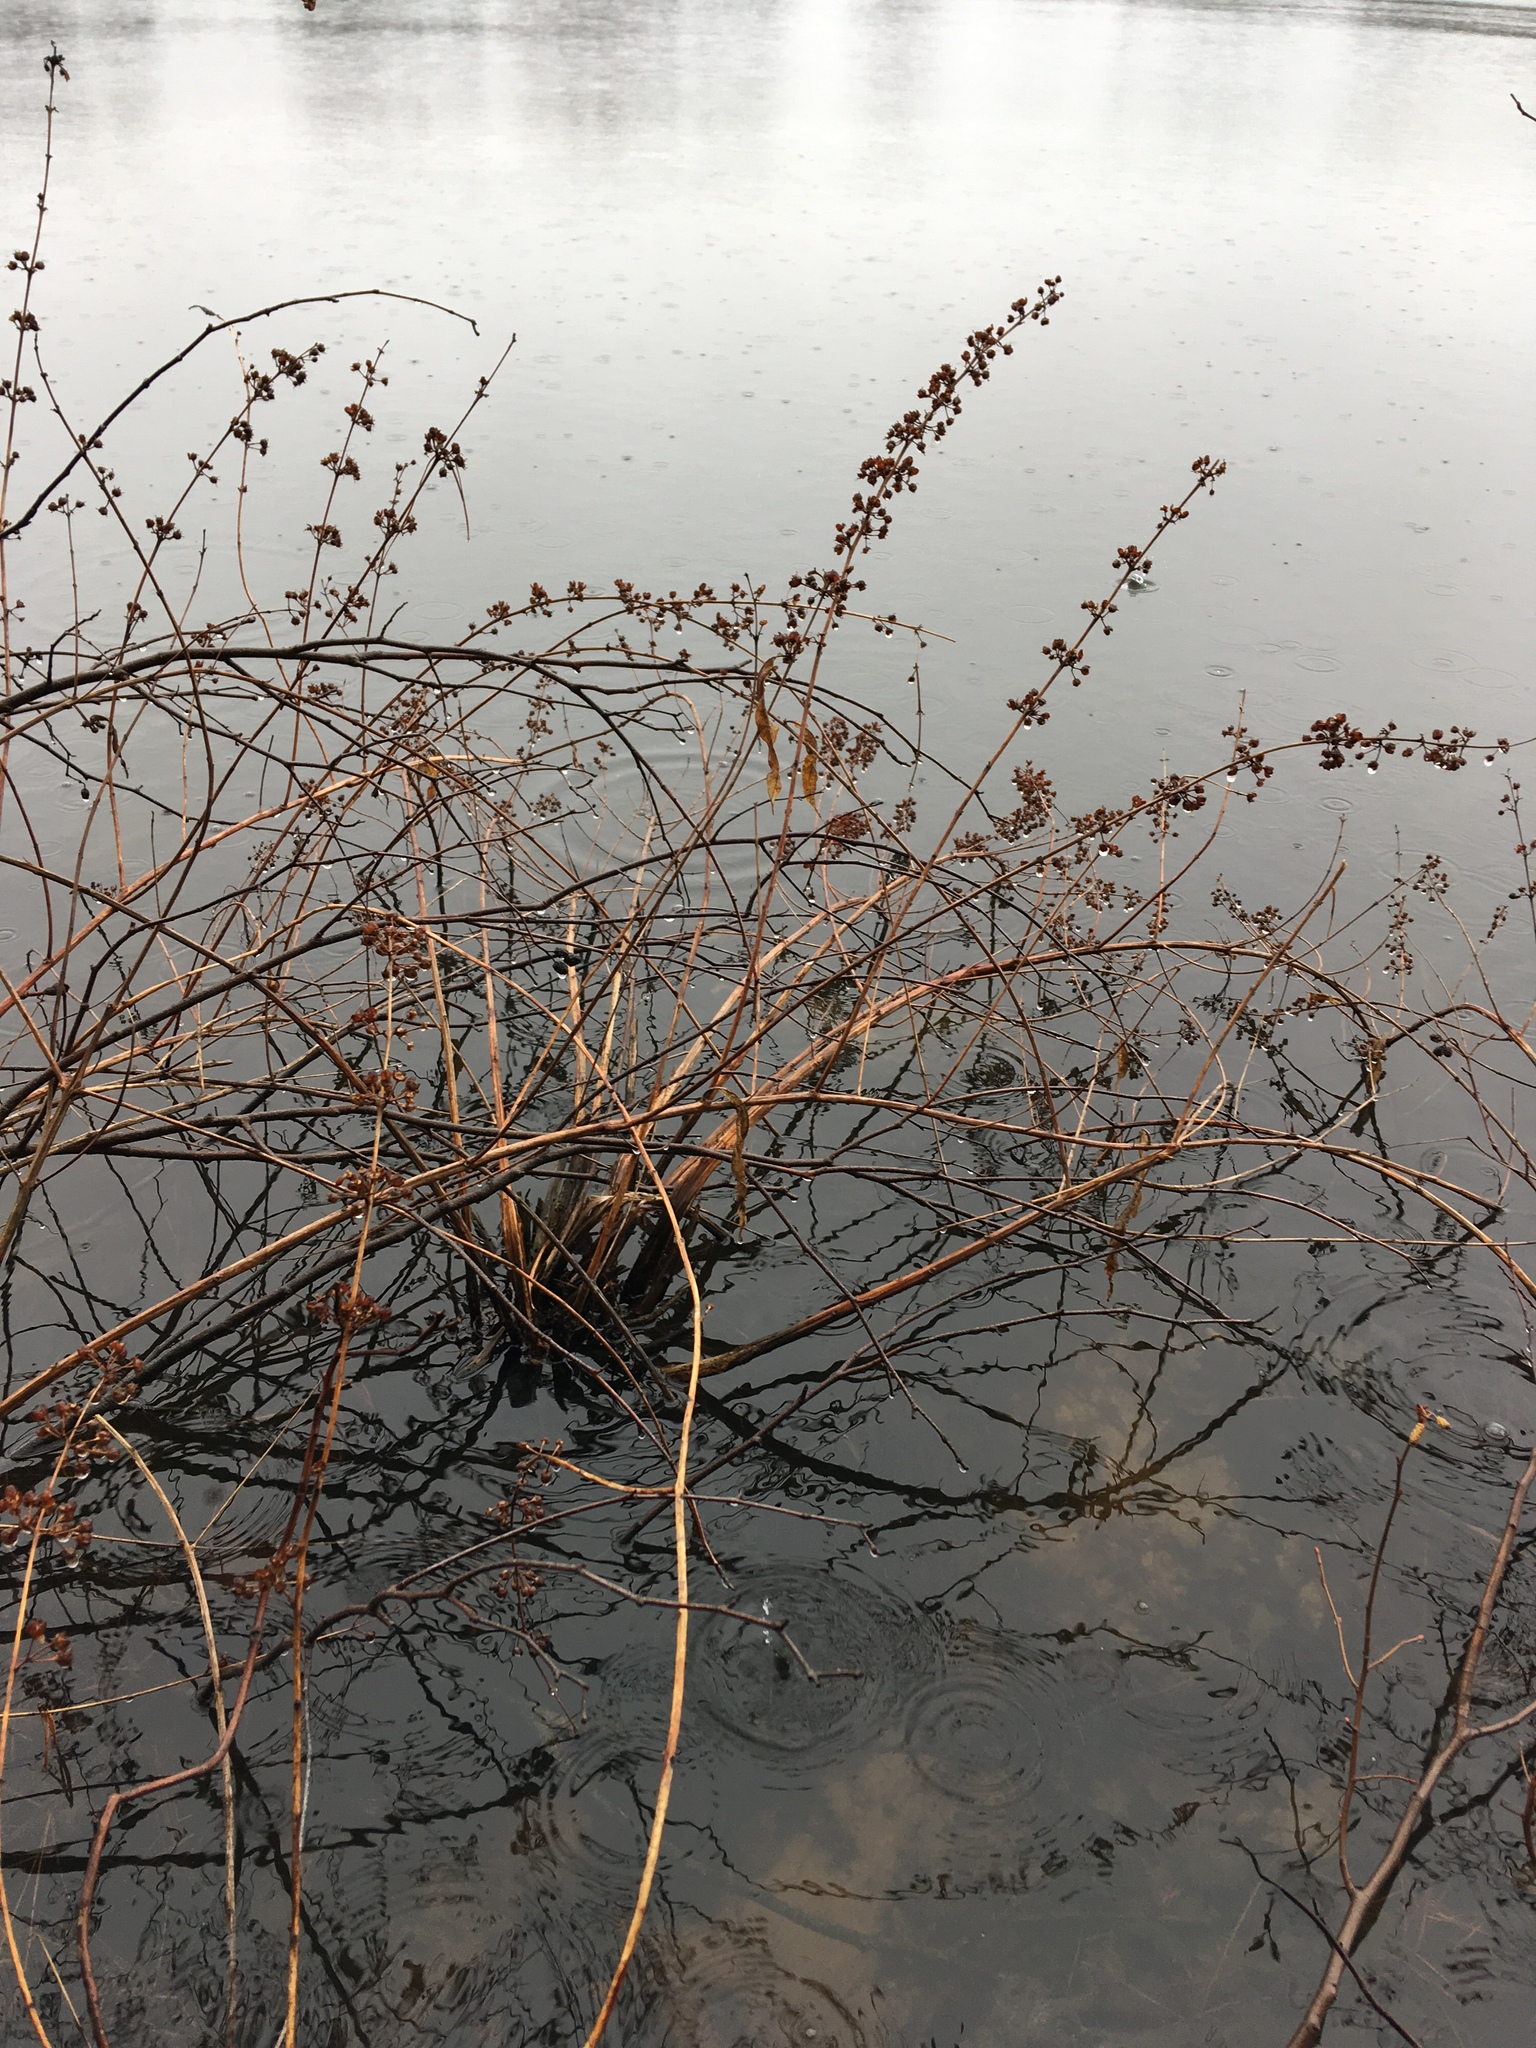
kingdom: Plantae
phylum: Tracheophyta
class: Magnoliopsida
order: Myrtales
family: Lythraceae
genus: Decodon
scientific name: Decodon verticillatus
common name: Hairy swamp loosestrife
